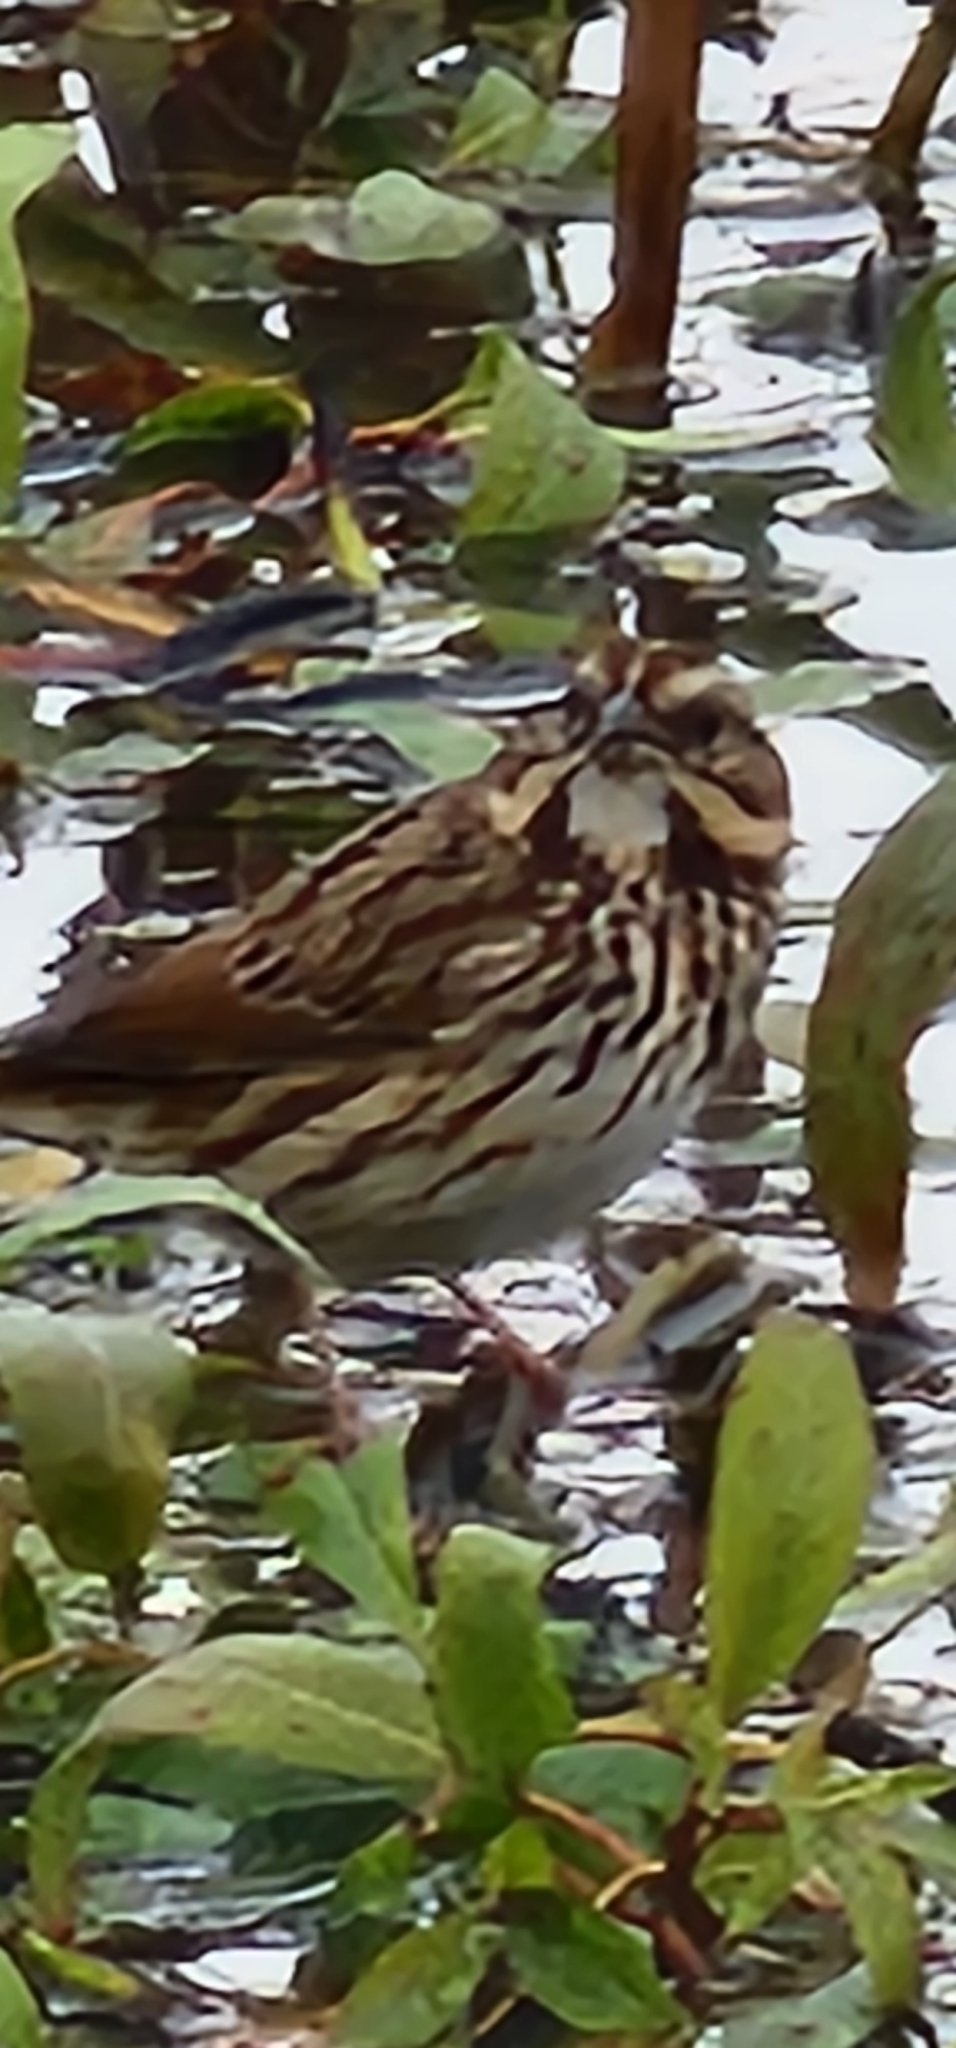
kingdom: Animalia
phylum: Chordata
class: Aves
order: Passeriformes
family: Passerellidae
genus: Melospiza
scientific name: Melospiza melodia
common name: Song sparrow
